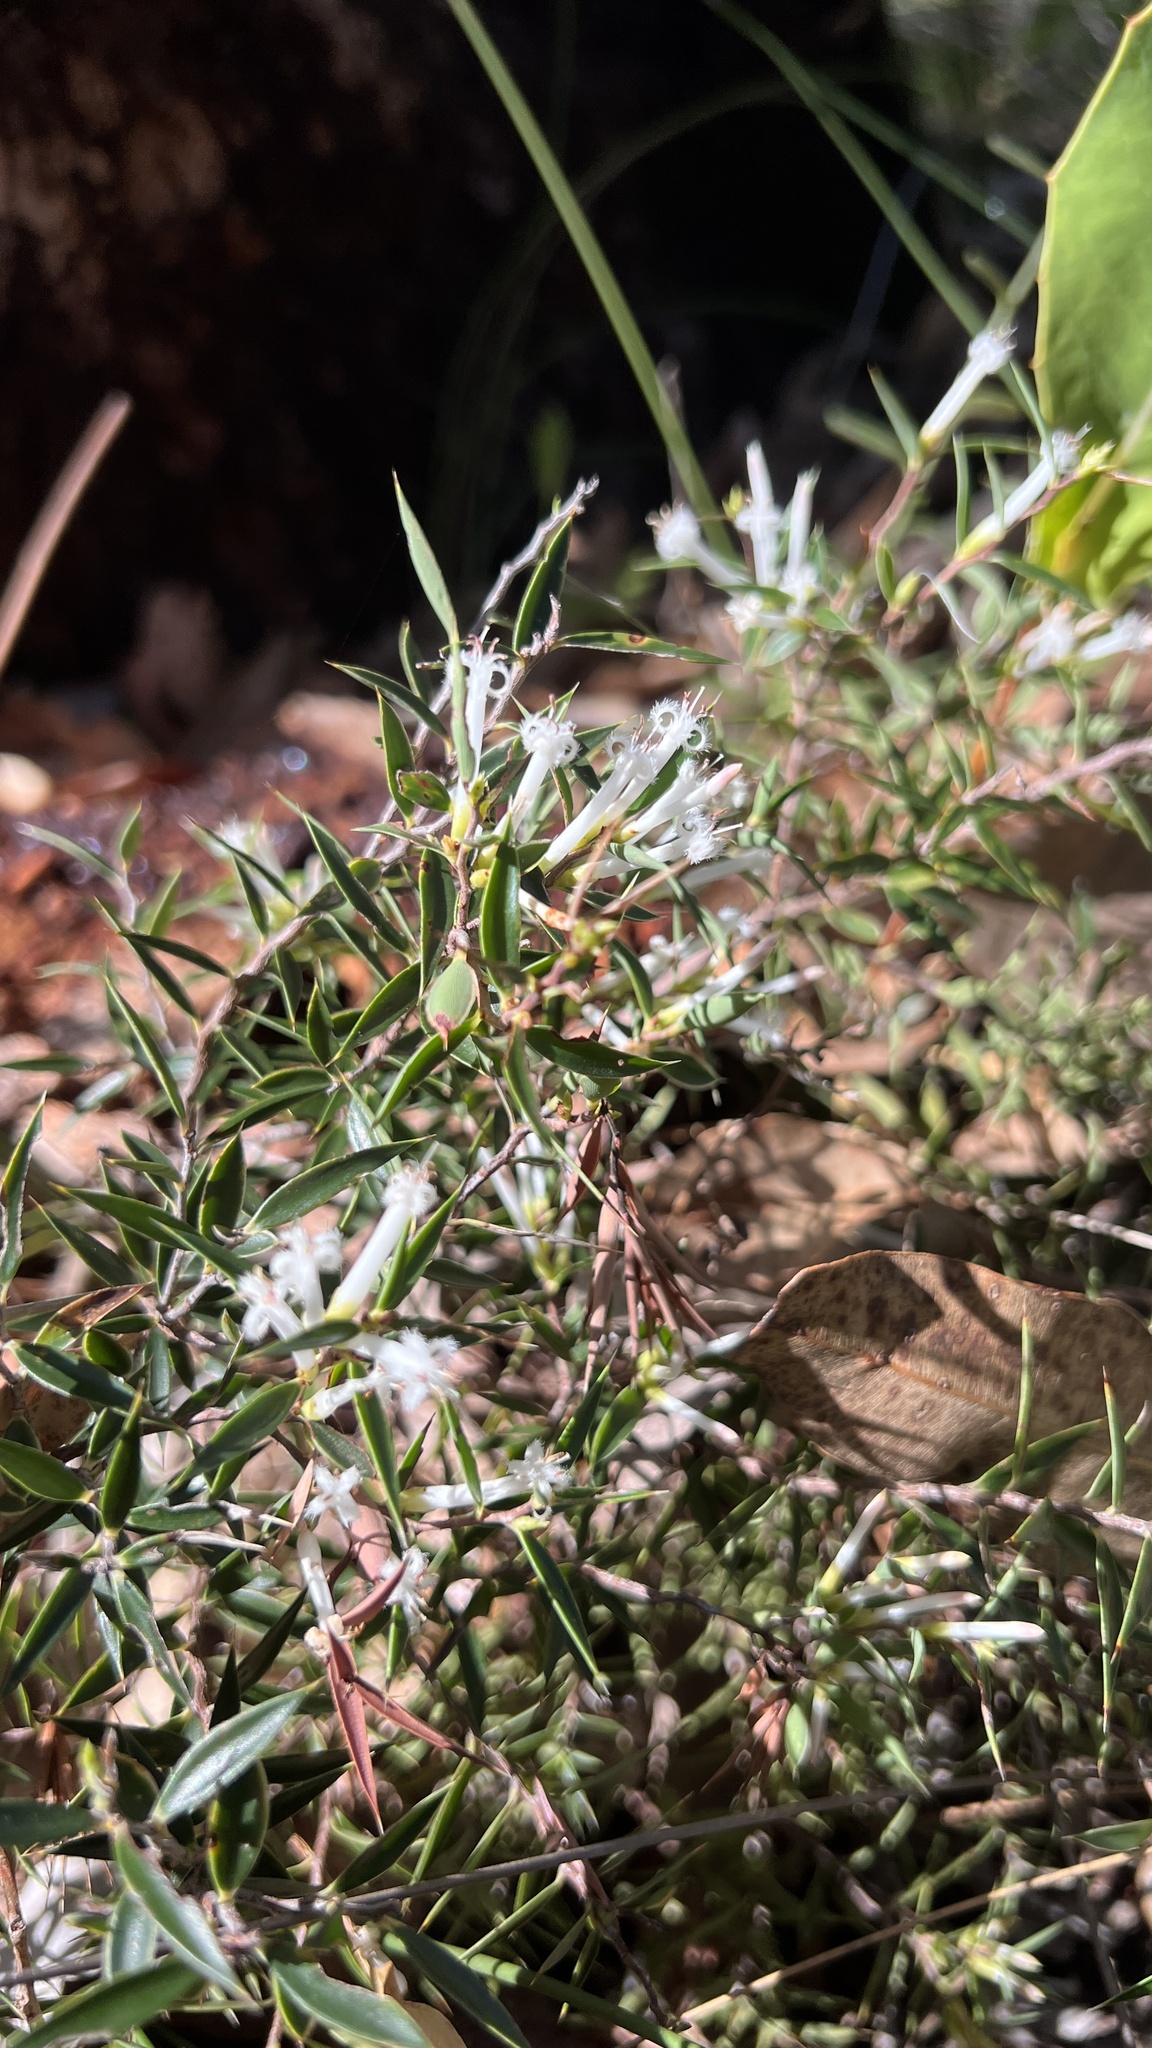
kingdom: Plantae
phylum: Tracheophyta
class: Magnoliopsida
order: Ericales
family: Ericaceae
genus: Styphelia
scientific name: Styphelia tenuiflora
